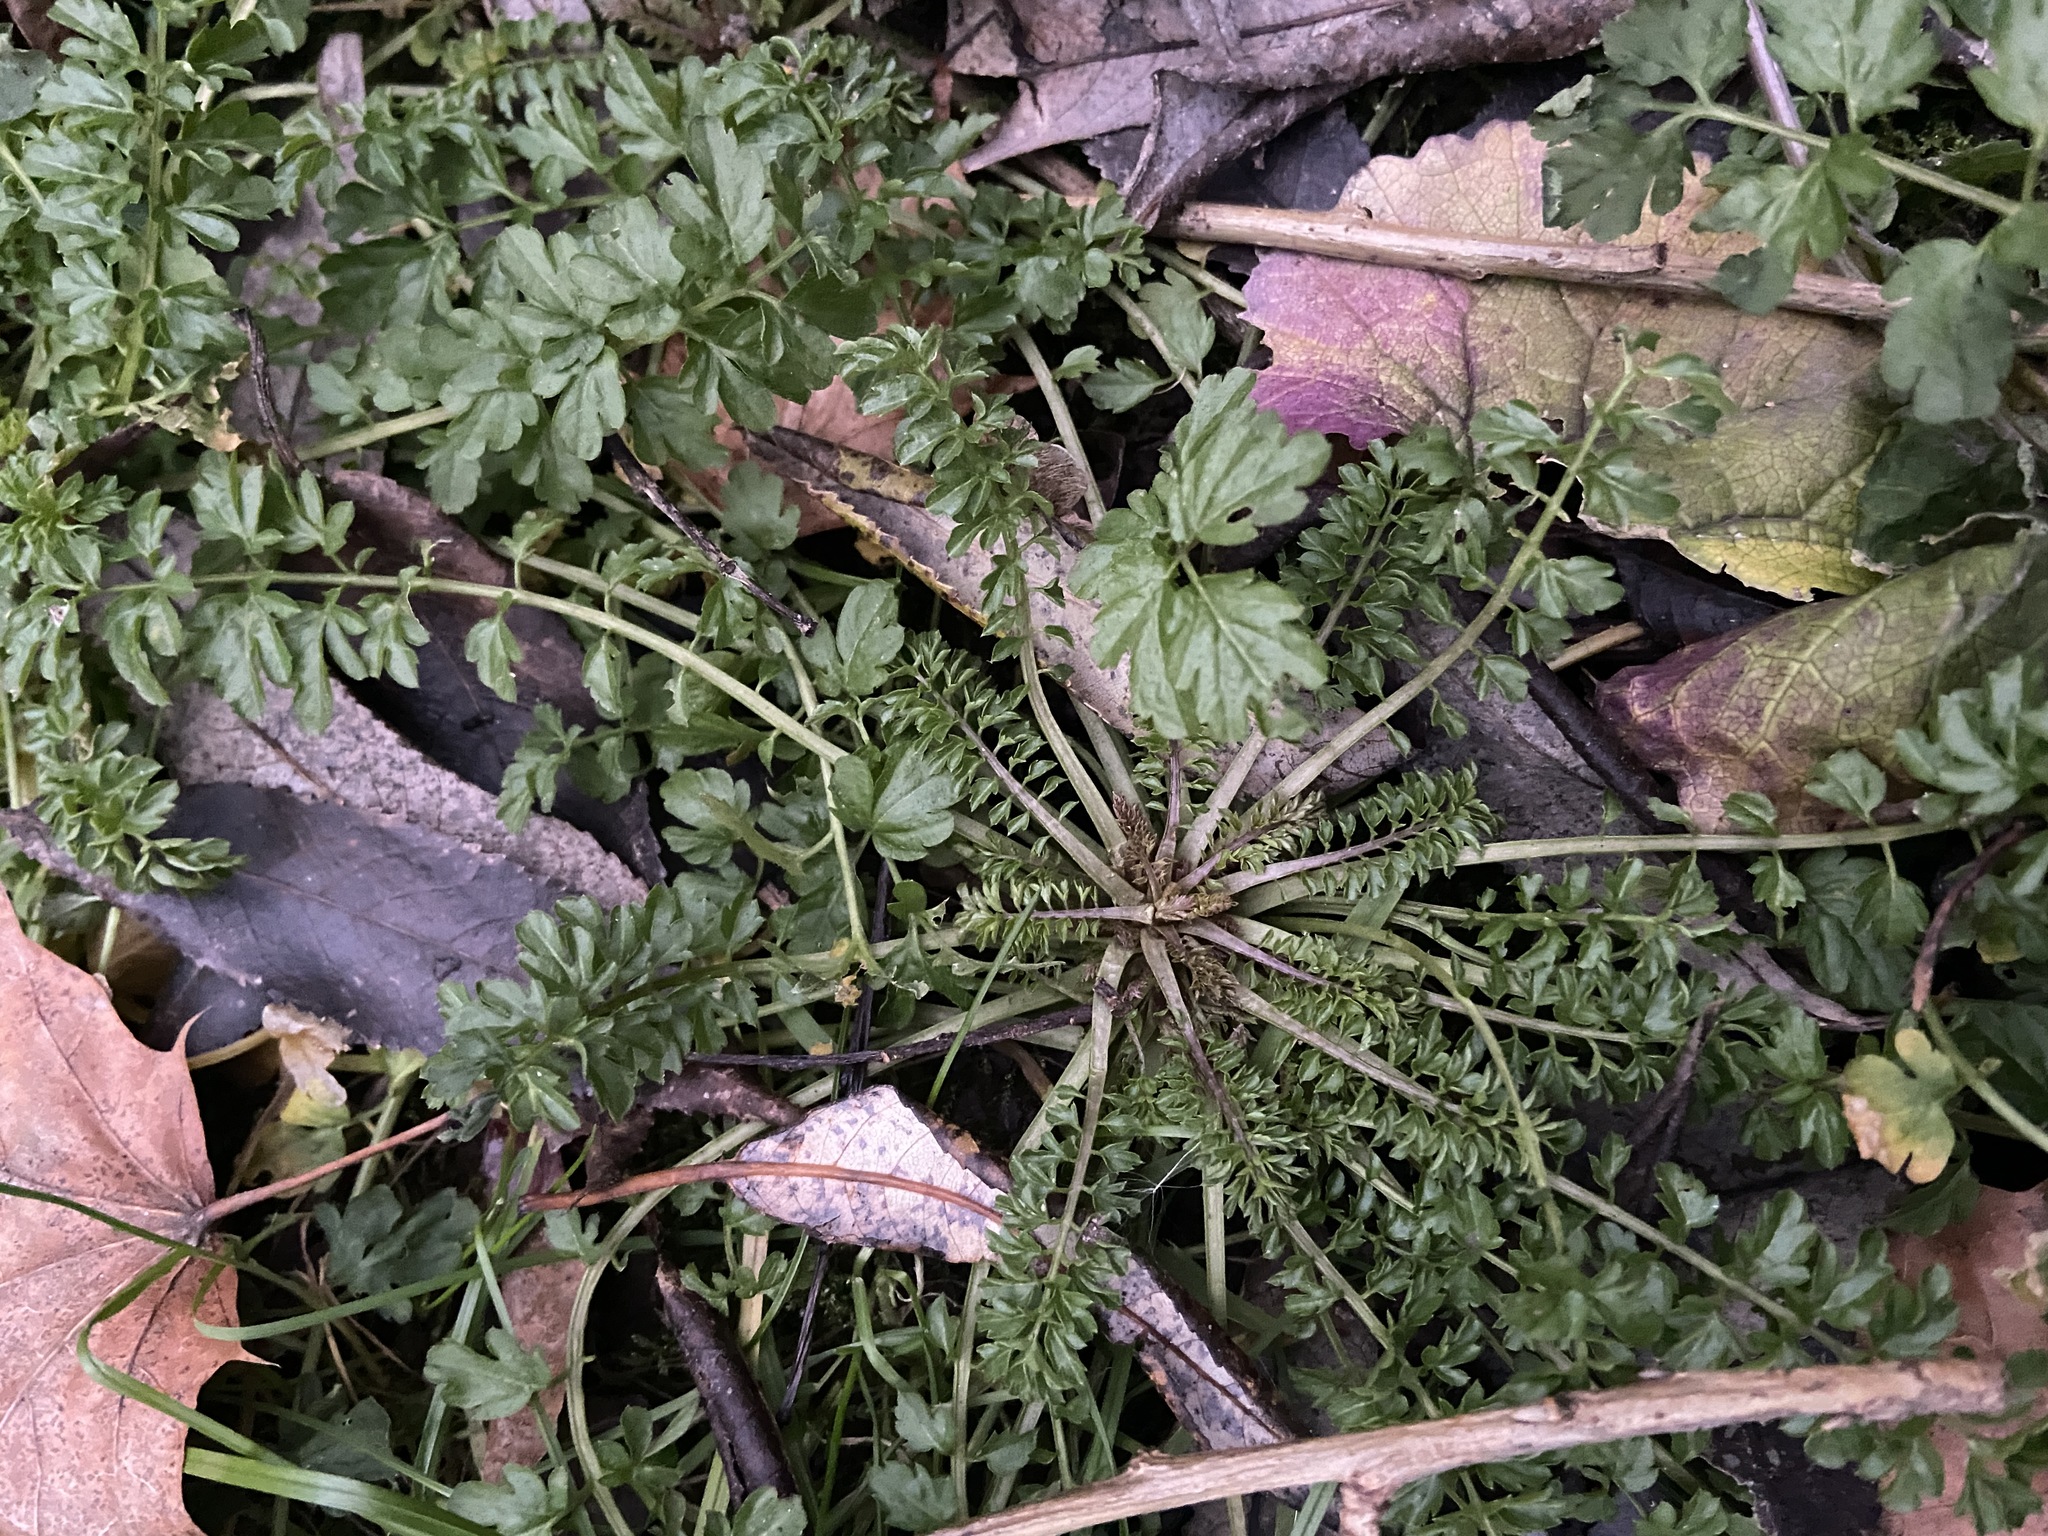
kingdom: Plantae
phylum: Tracheophyta
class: Magnoliopsida
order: Brassicales
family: Brassicaceae
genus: Cardamine
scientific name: Cardamine impatiens
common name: Narrow-leaved bitter-cress
